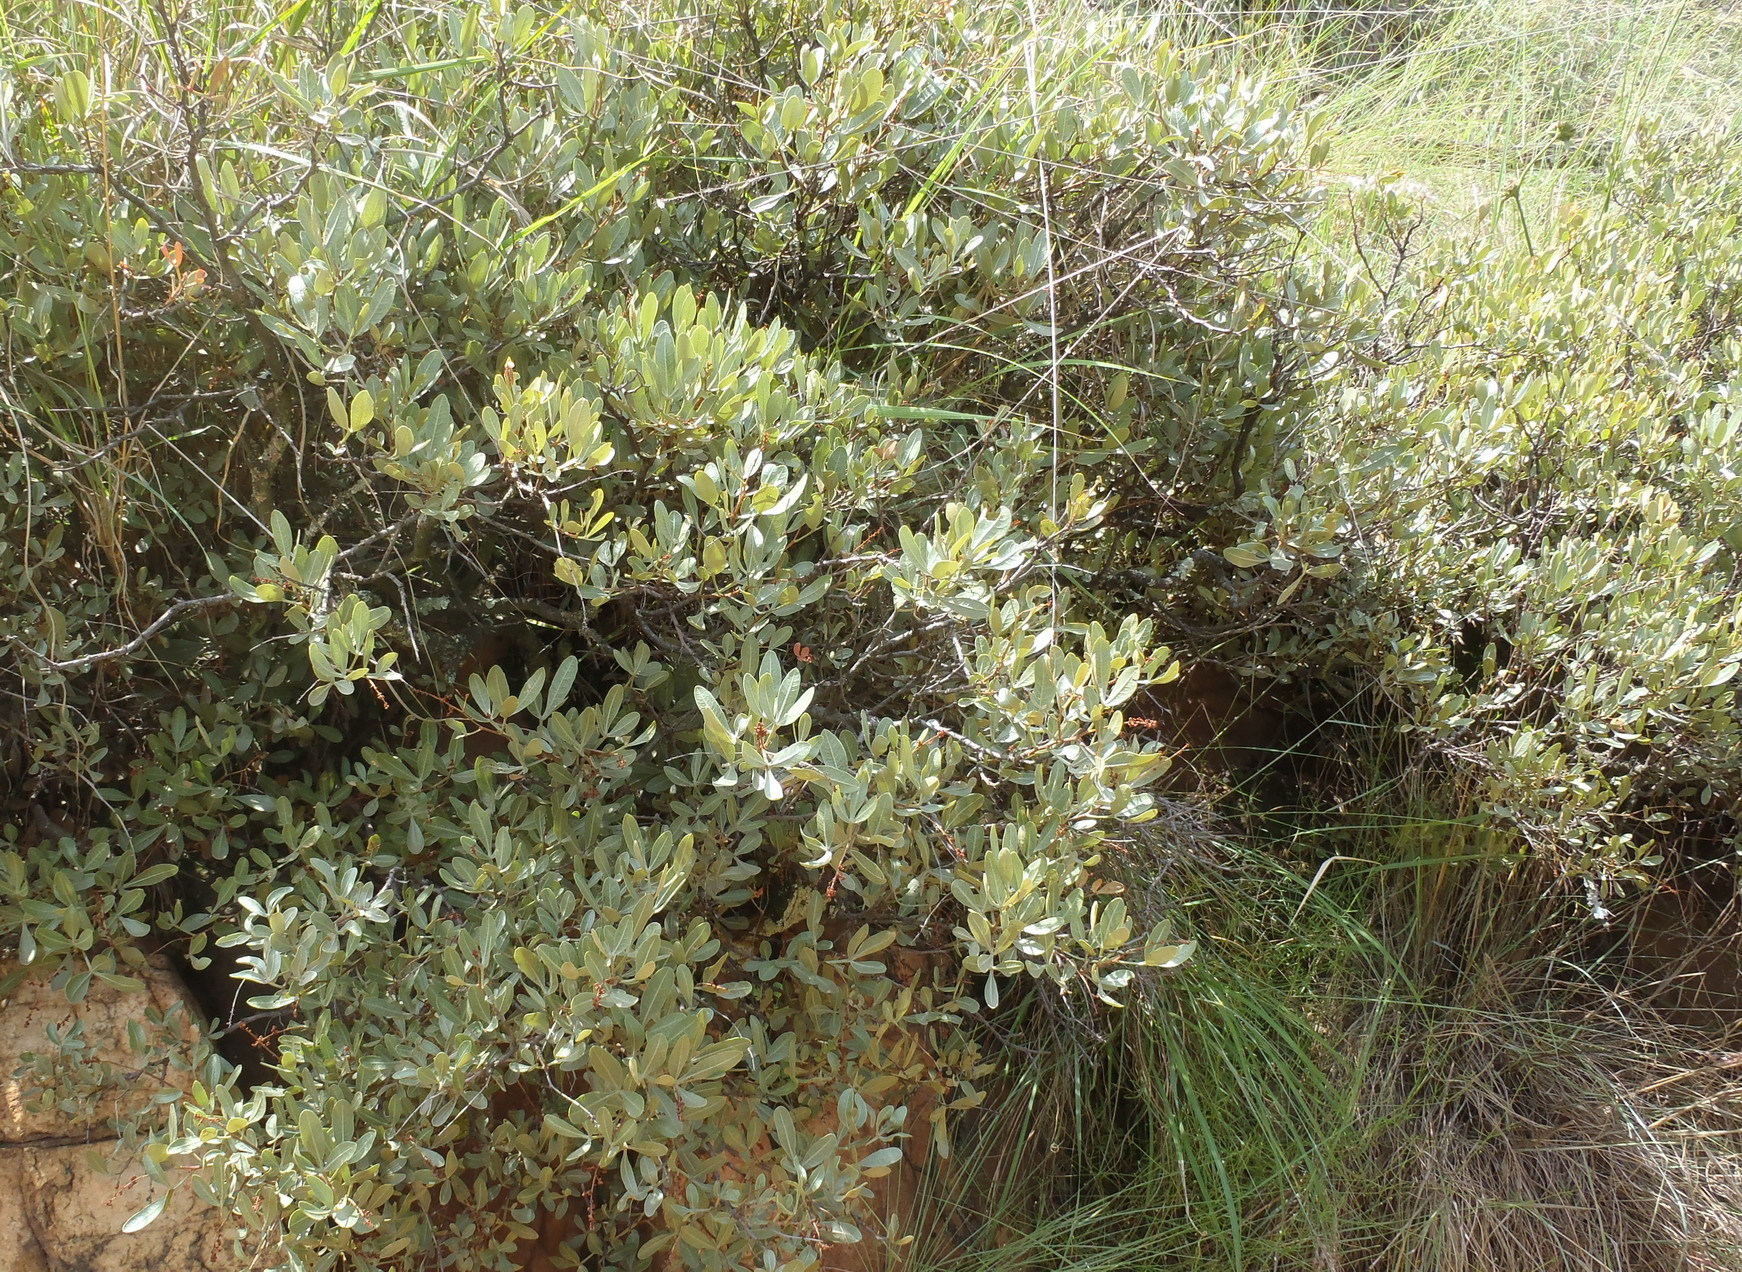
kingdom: Plantae
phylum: Tracheophyta
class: Magnoliopsida
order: Sapindales
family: Anacardiaceae
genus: Searsia
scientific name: Searsia magalismontana
